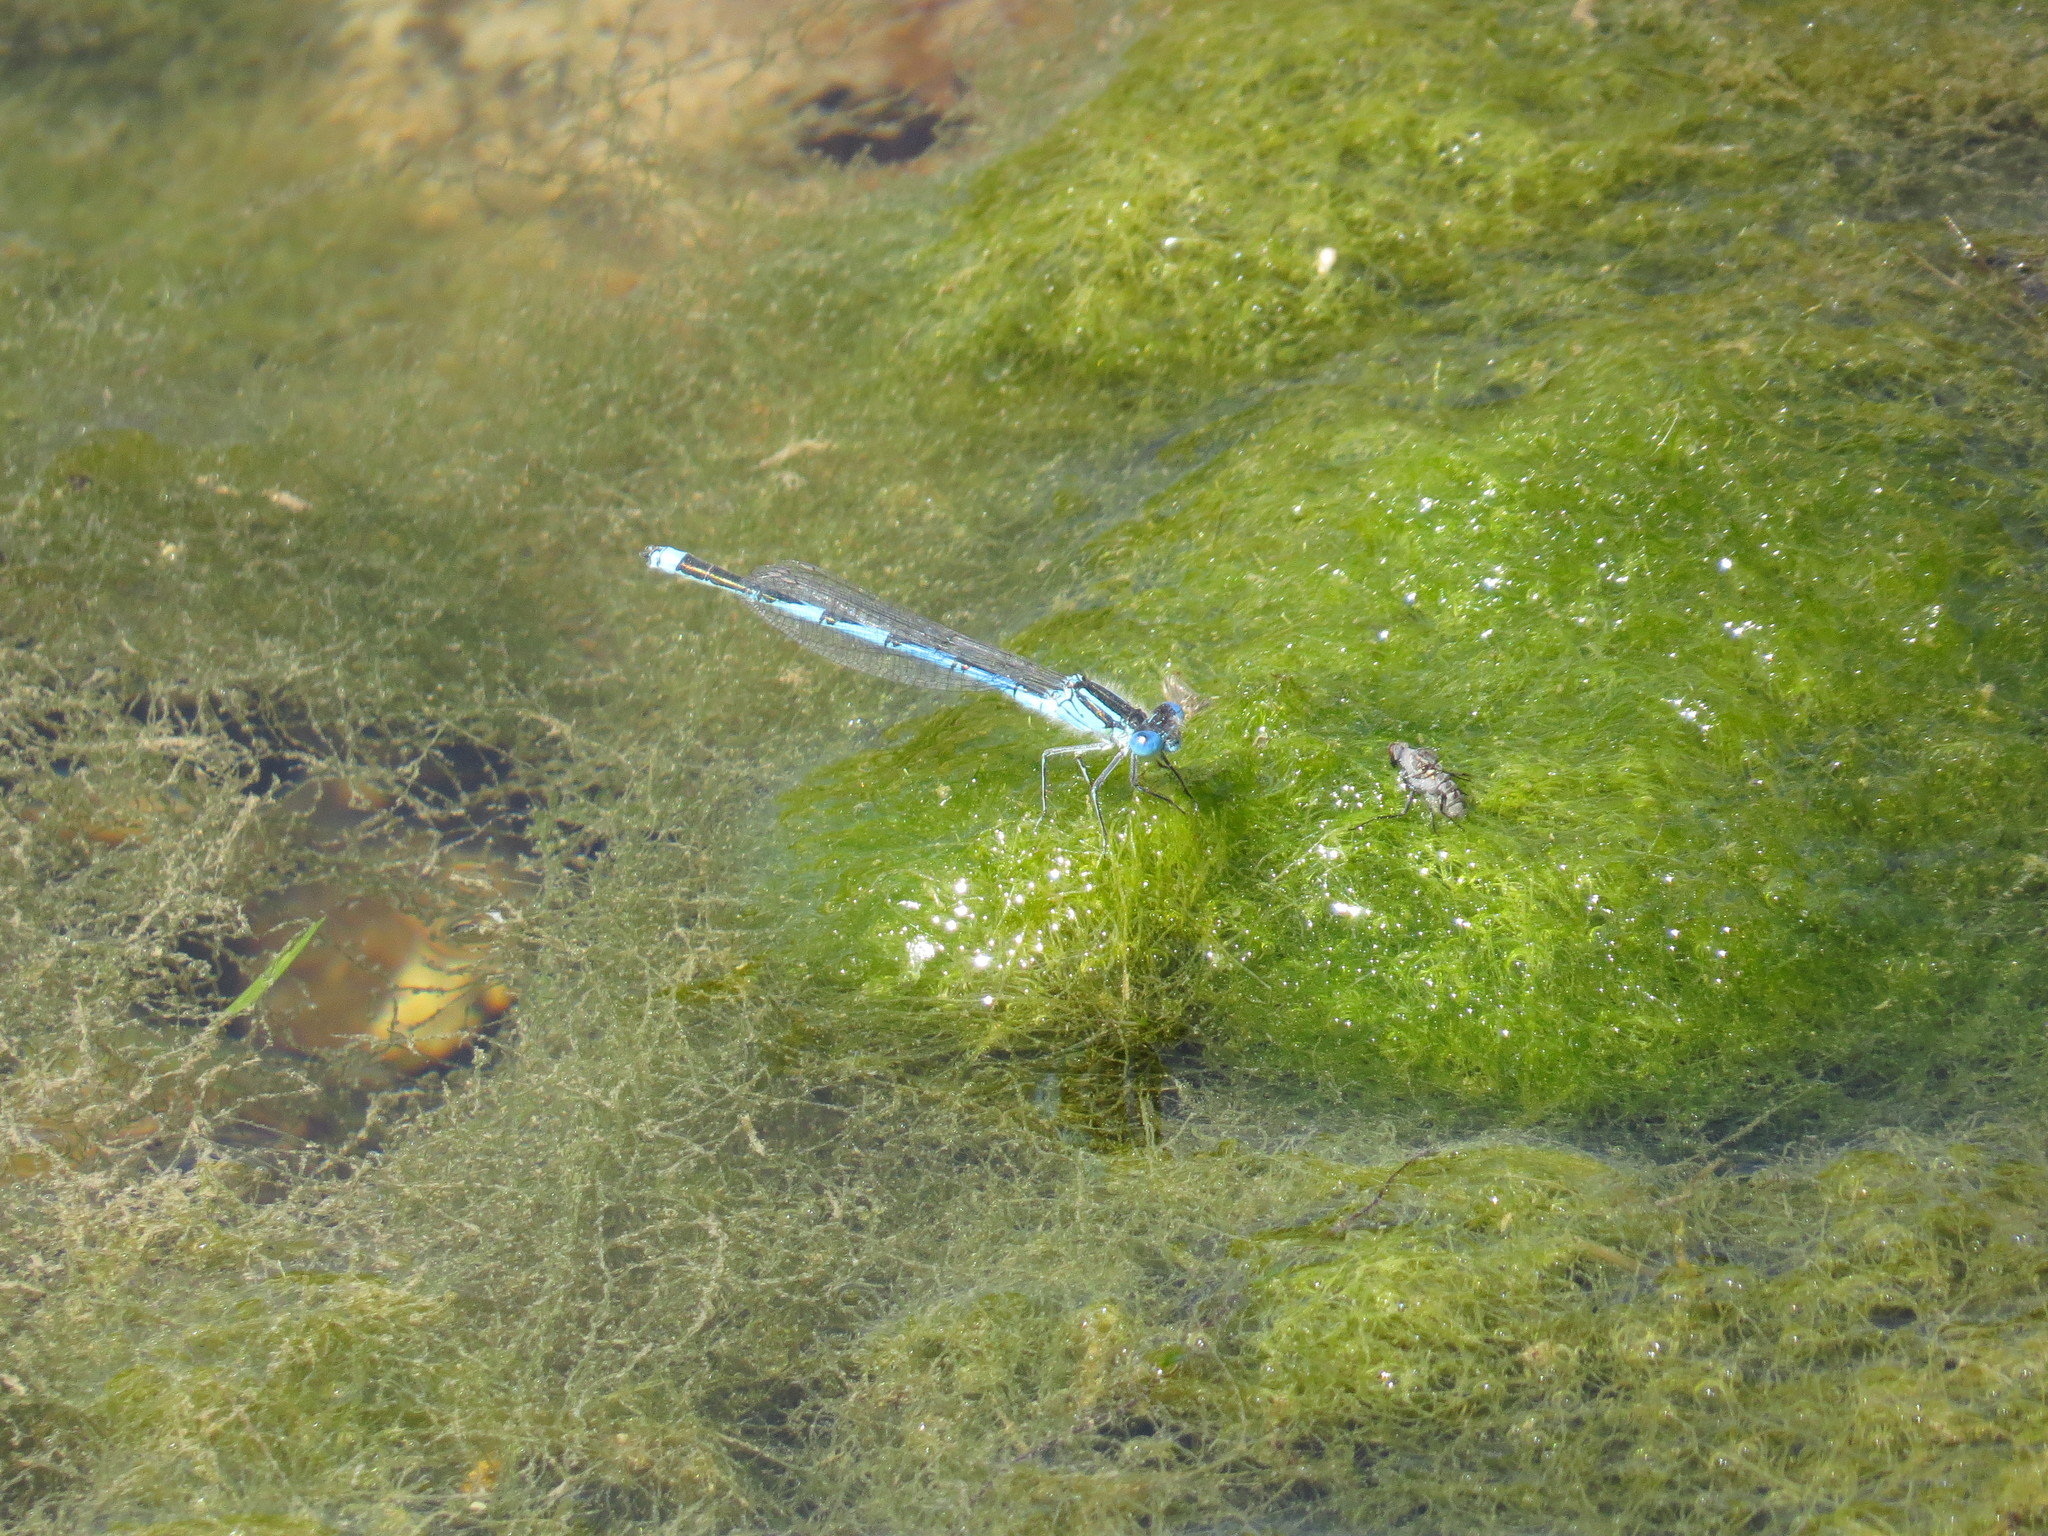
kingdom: Animalia
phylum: Arthropoda
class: Insecta
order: Odonata
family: Coenagrionidae
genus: Erythromma
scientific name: Erythromma lindenii
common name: Blue-eye
